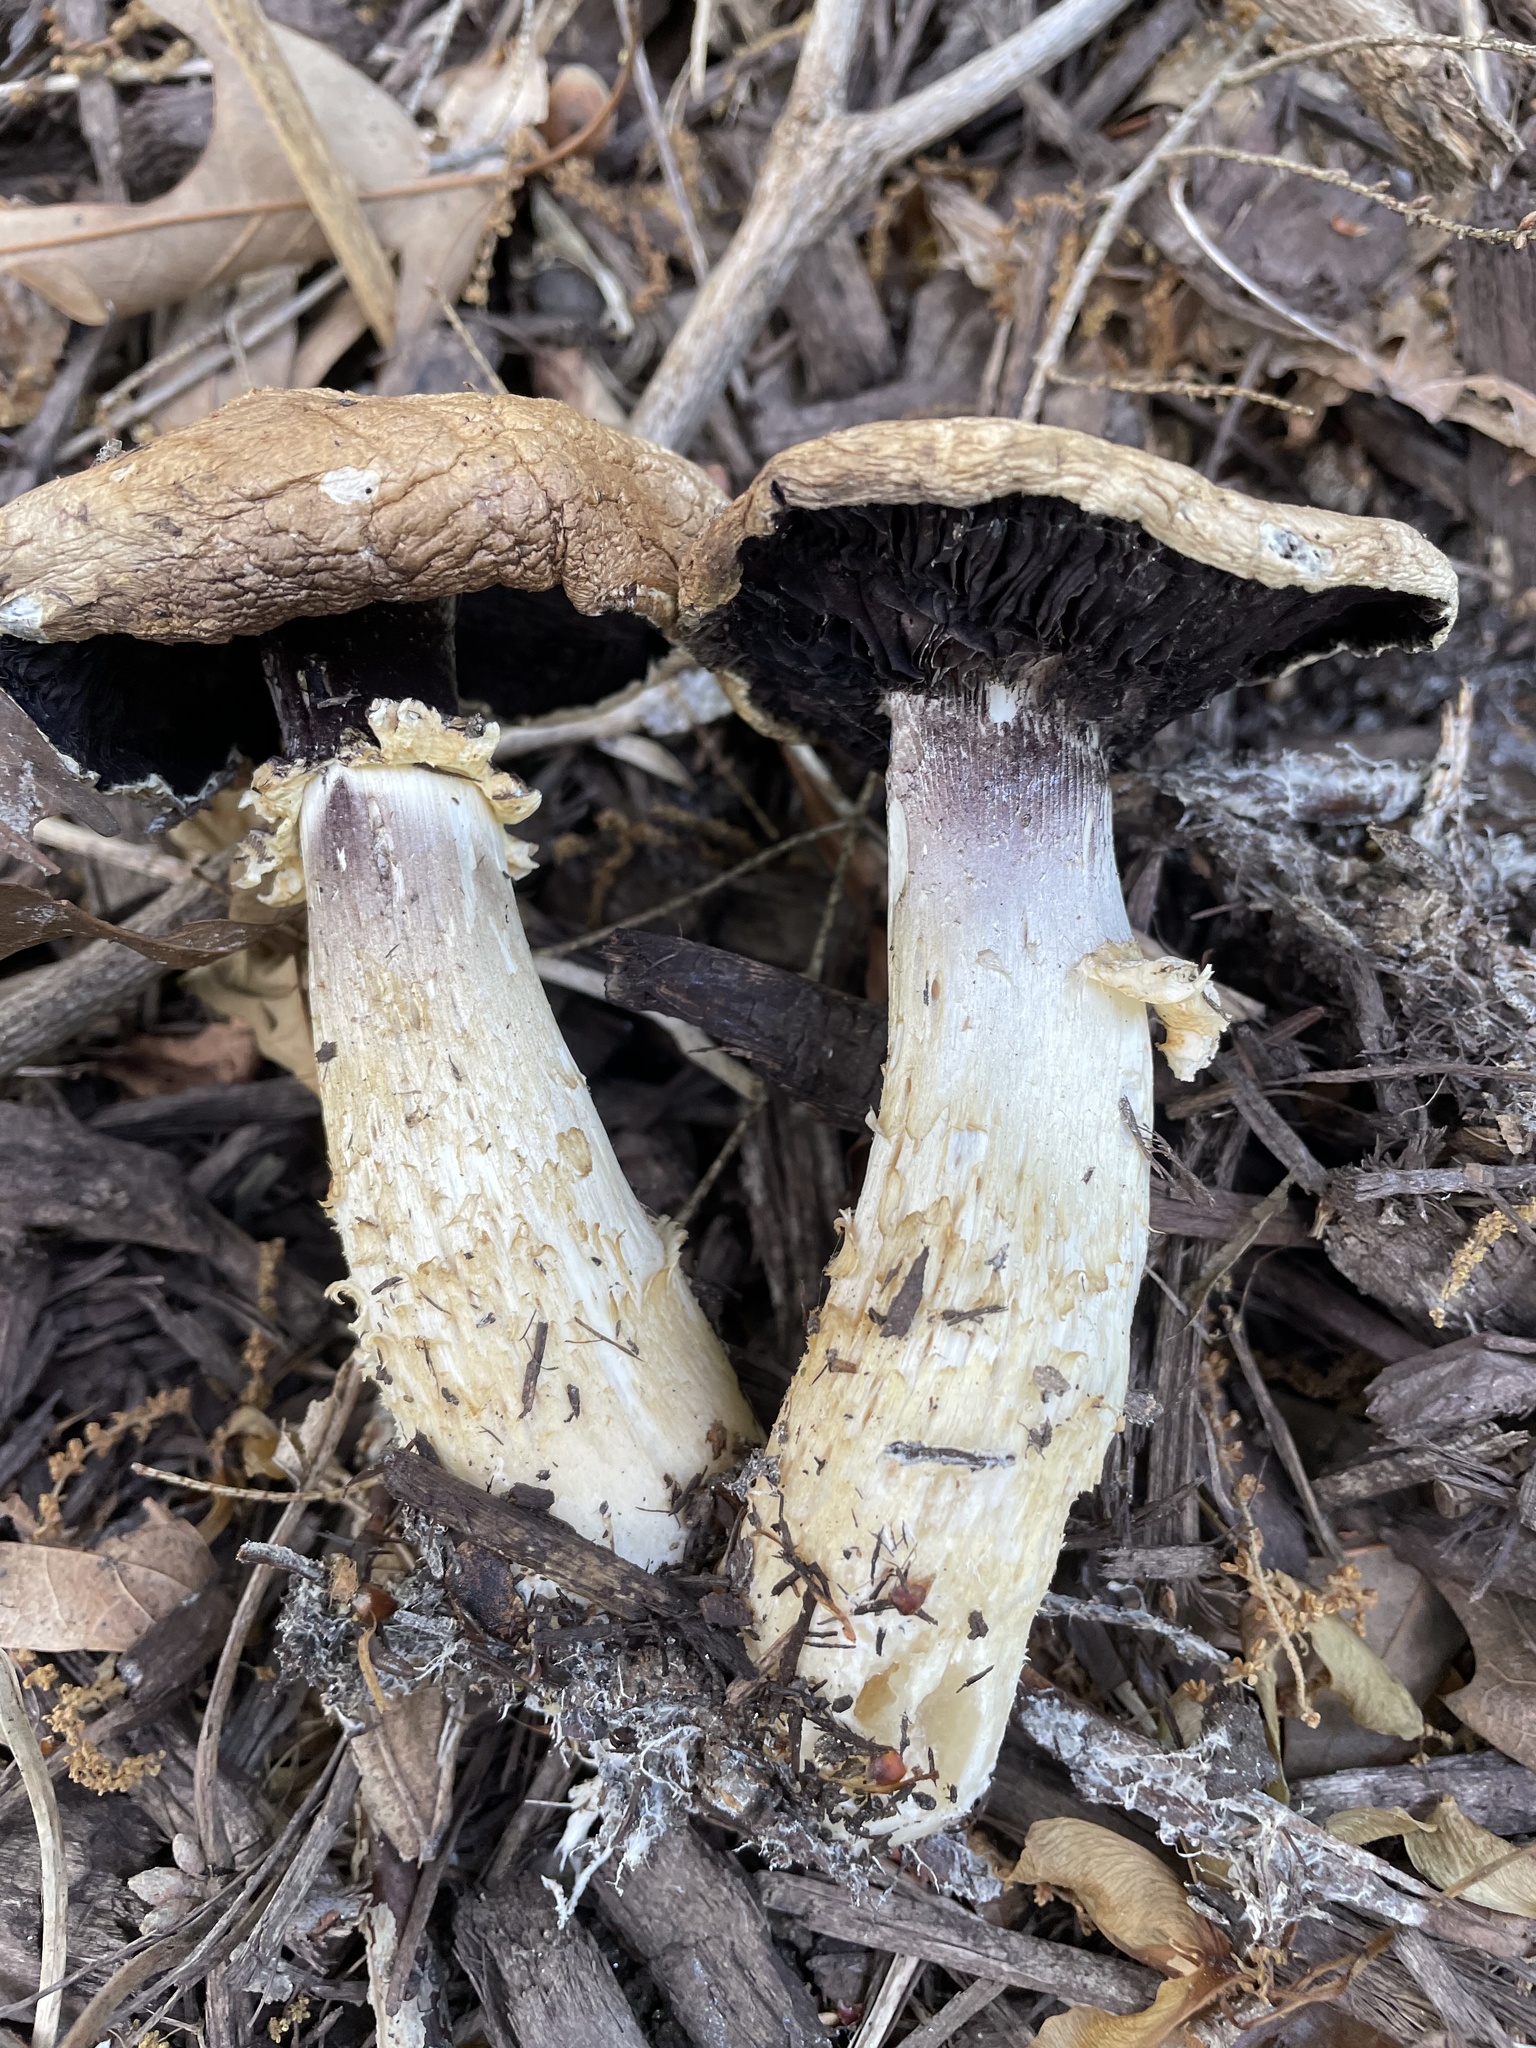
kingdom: Fungi
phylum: Basidiomycota
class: Agaricomycetes
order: Agaricales
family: Strophariaceae
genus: Stropharia
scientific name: Stropharia rugosoannulata
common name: Wine roundhead
